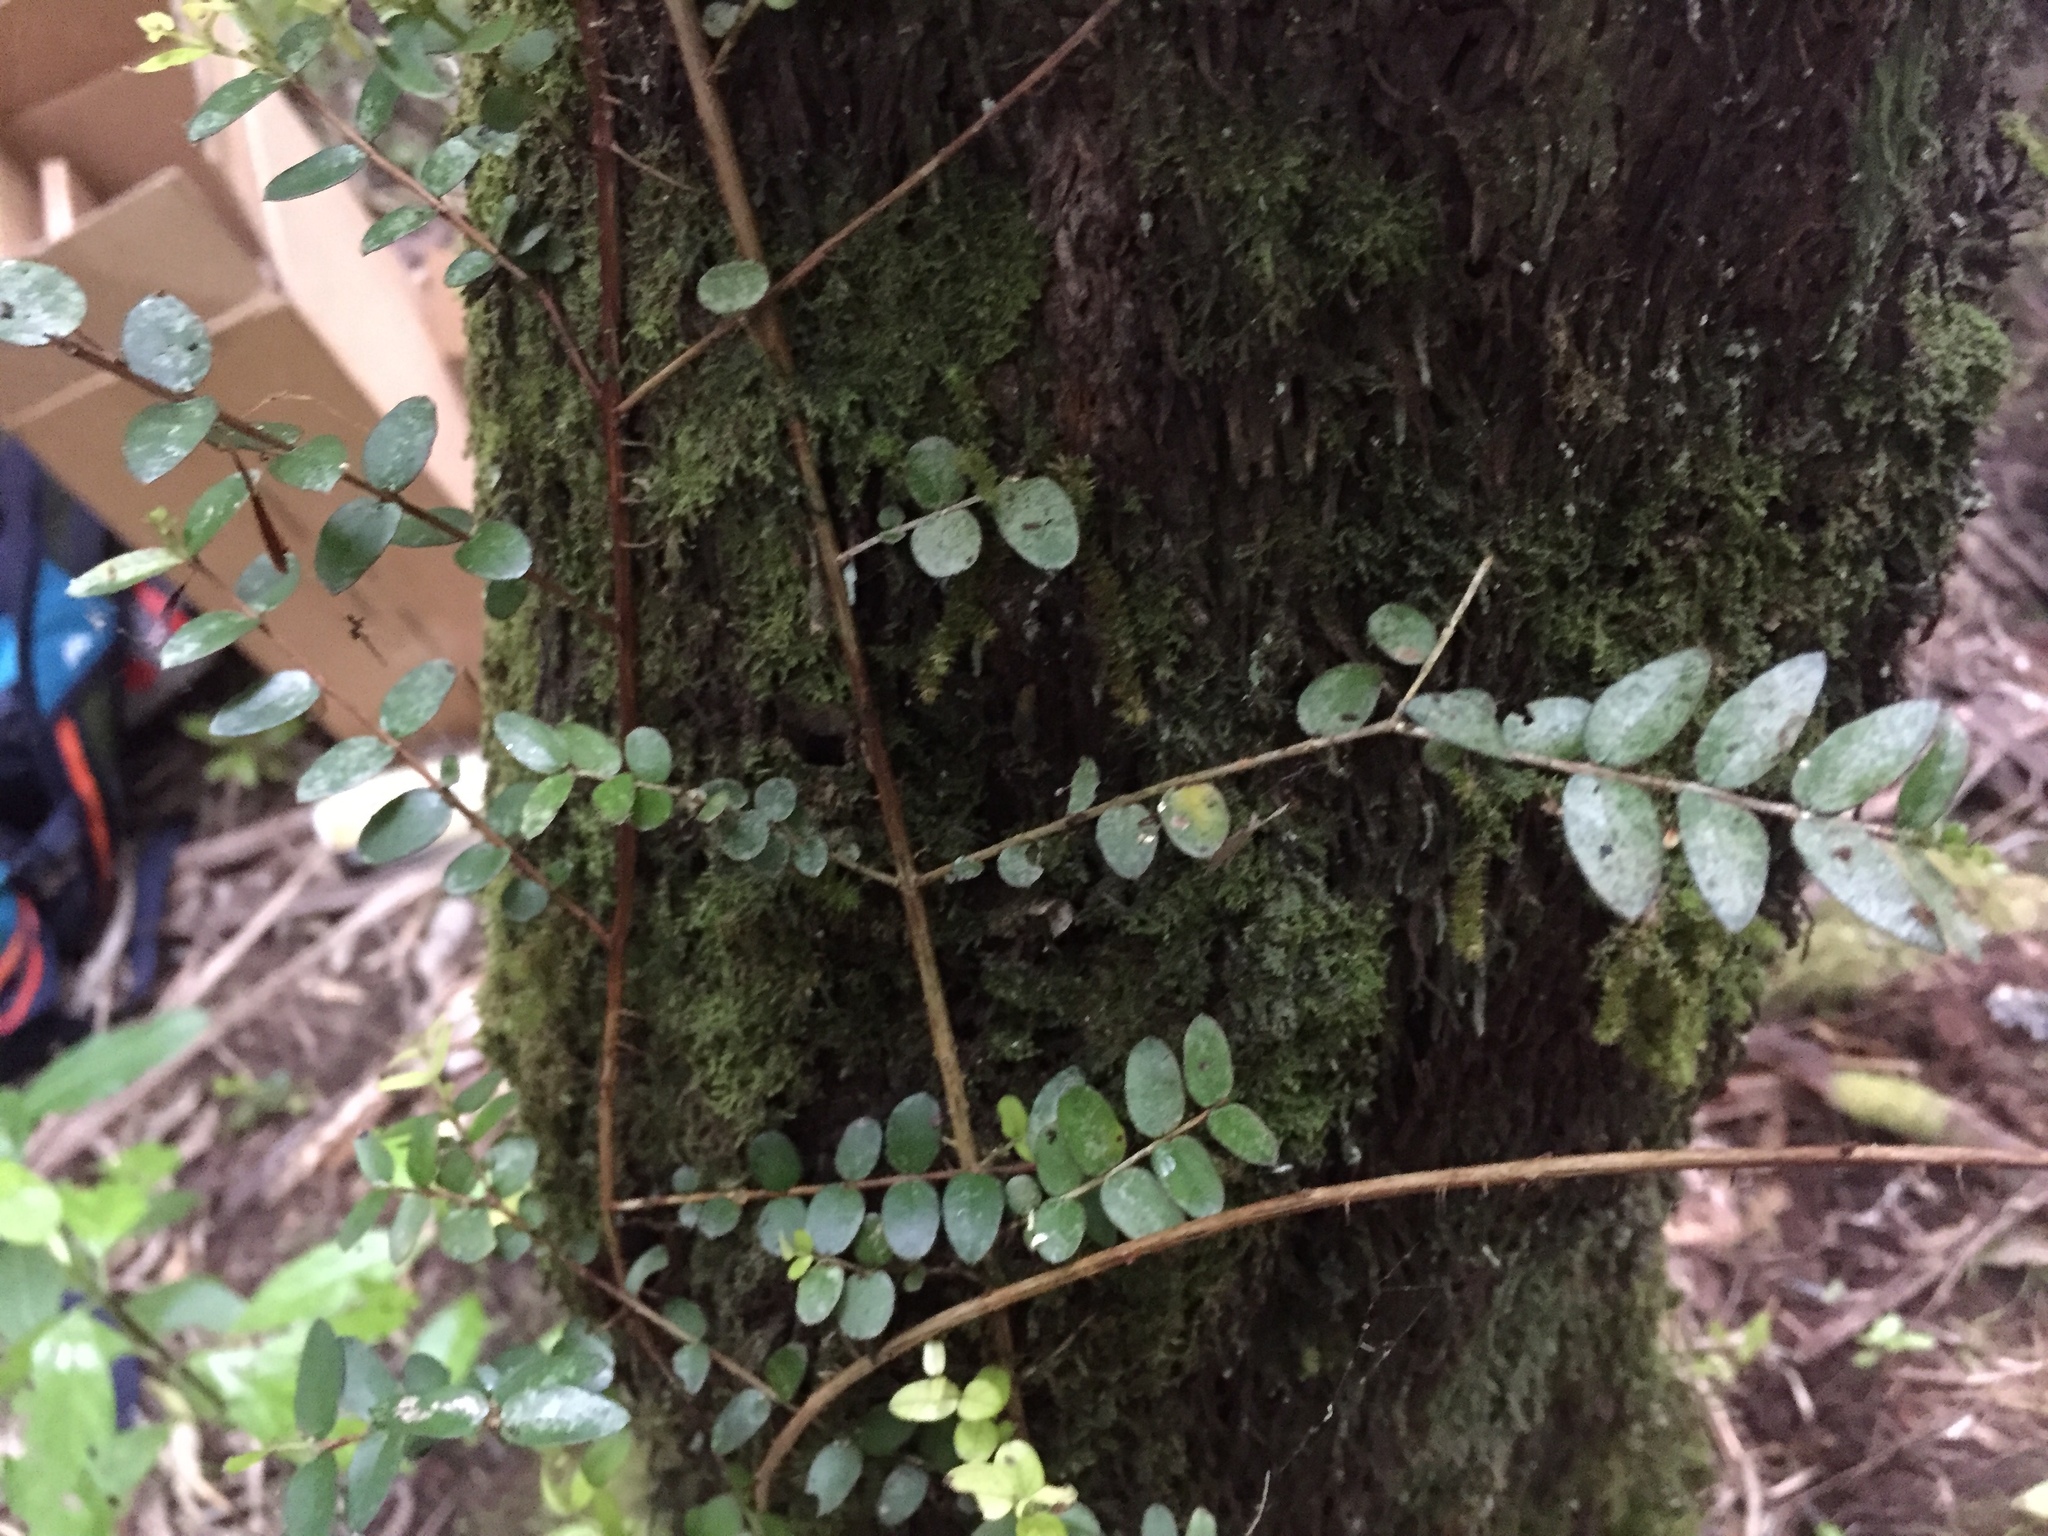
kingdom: Plantae
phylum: Tracheophyta
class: Magnoliopsida
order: Myrtales
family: Myrtaceae
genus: Metrosideros
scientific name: Metrosideros diffusa
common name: Small ratavine
